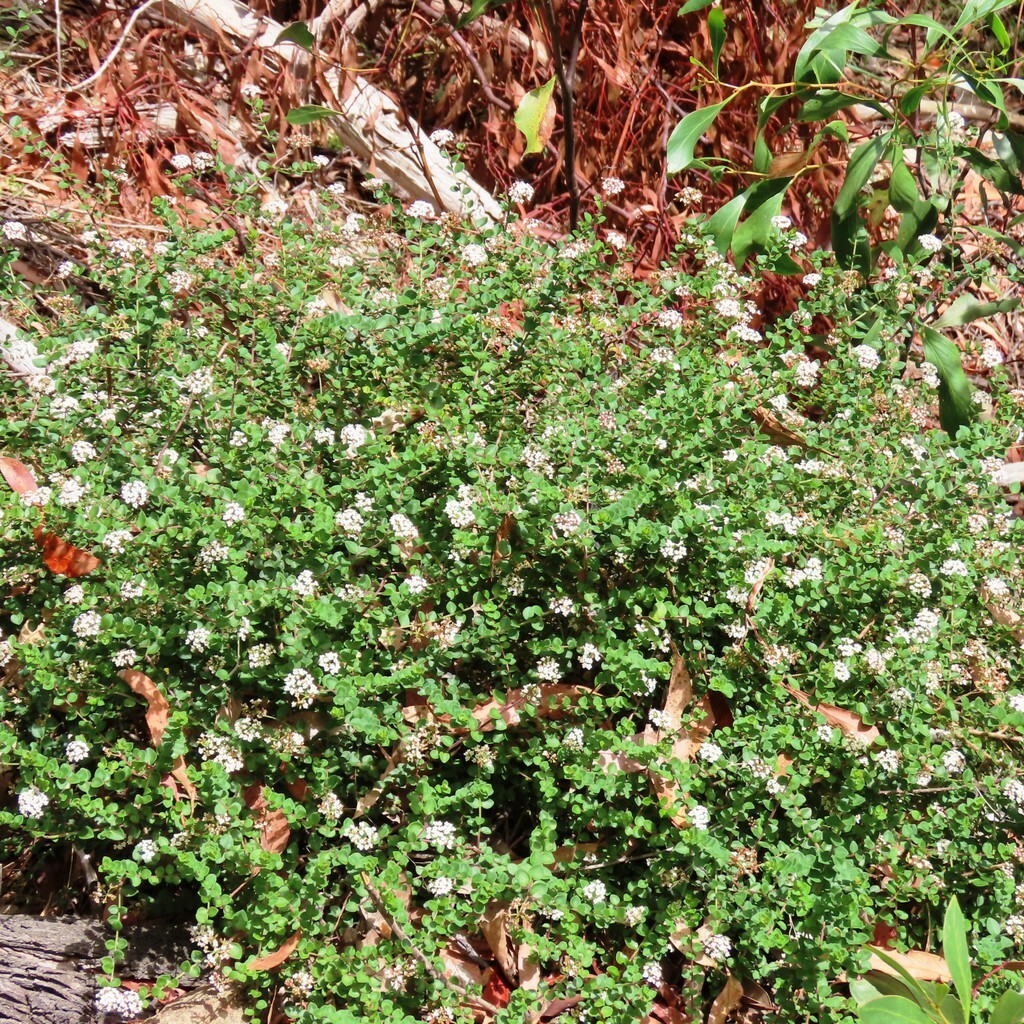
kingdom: Plantae
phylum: Tracheophyta
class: Magnoliopsida
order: Apiales
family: Apiaceae
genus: Platysace
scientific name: Platysace lanceolata
